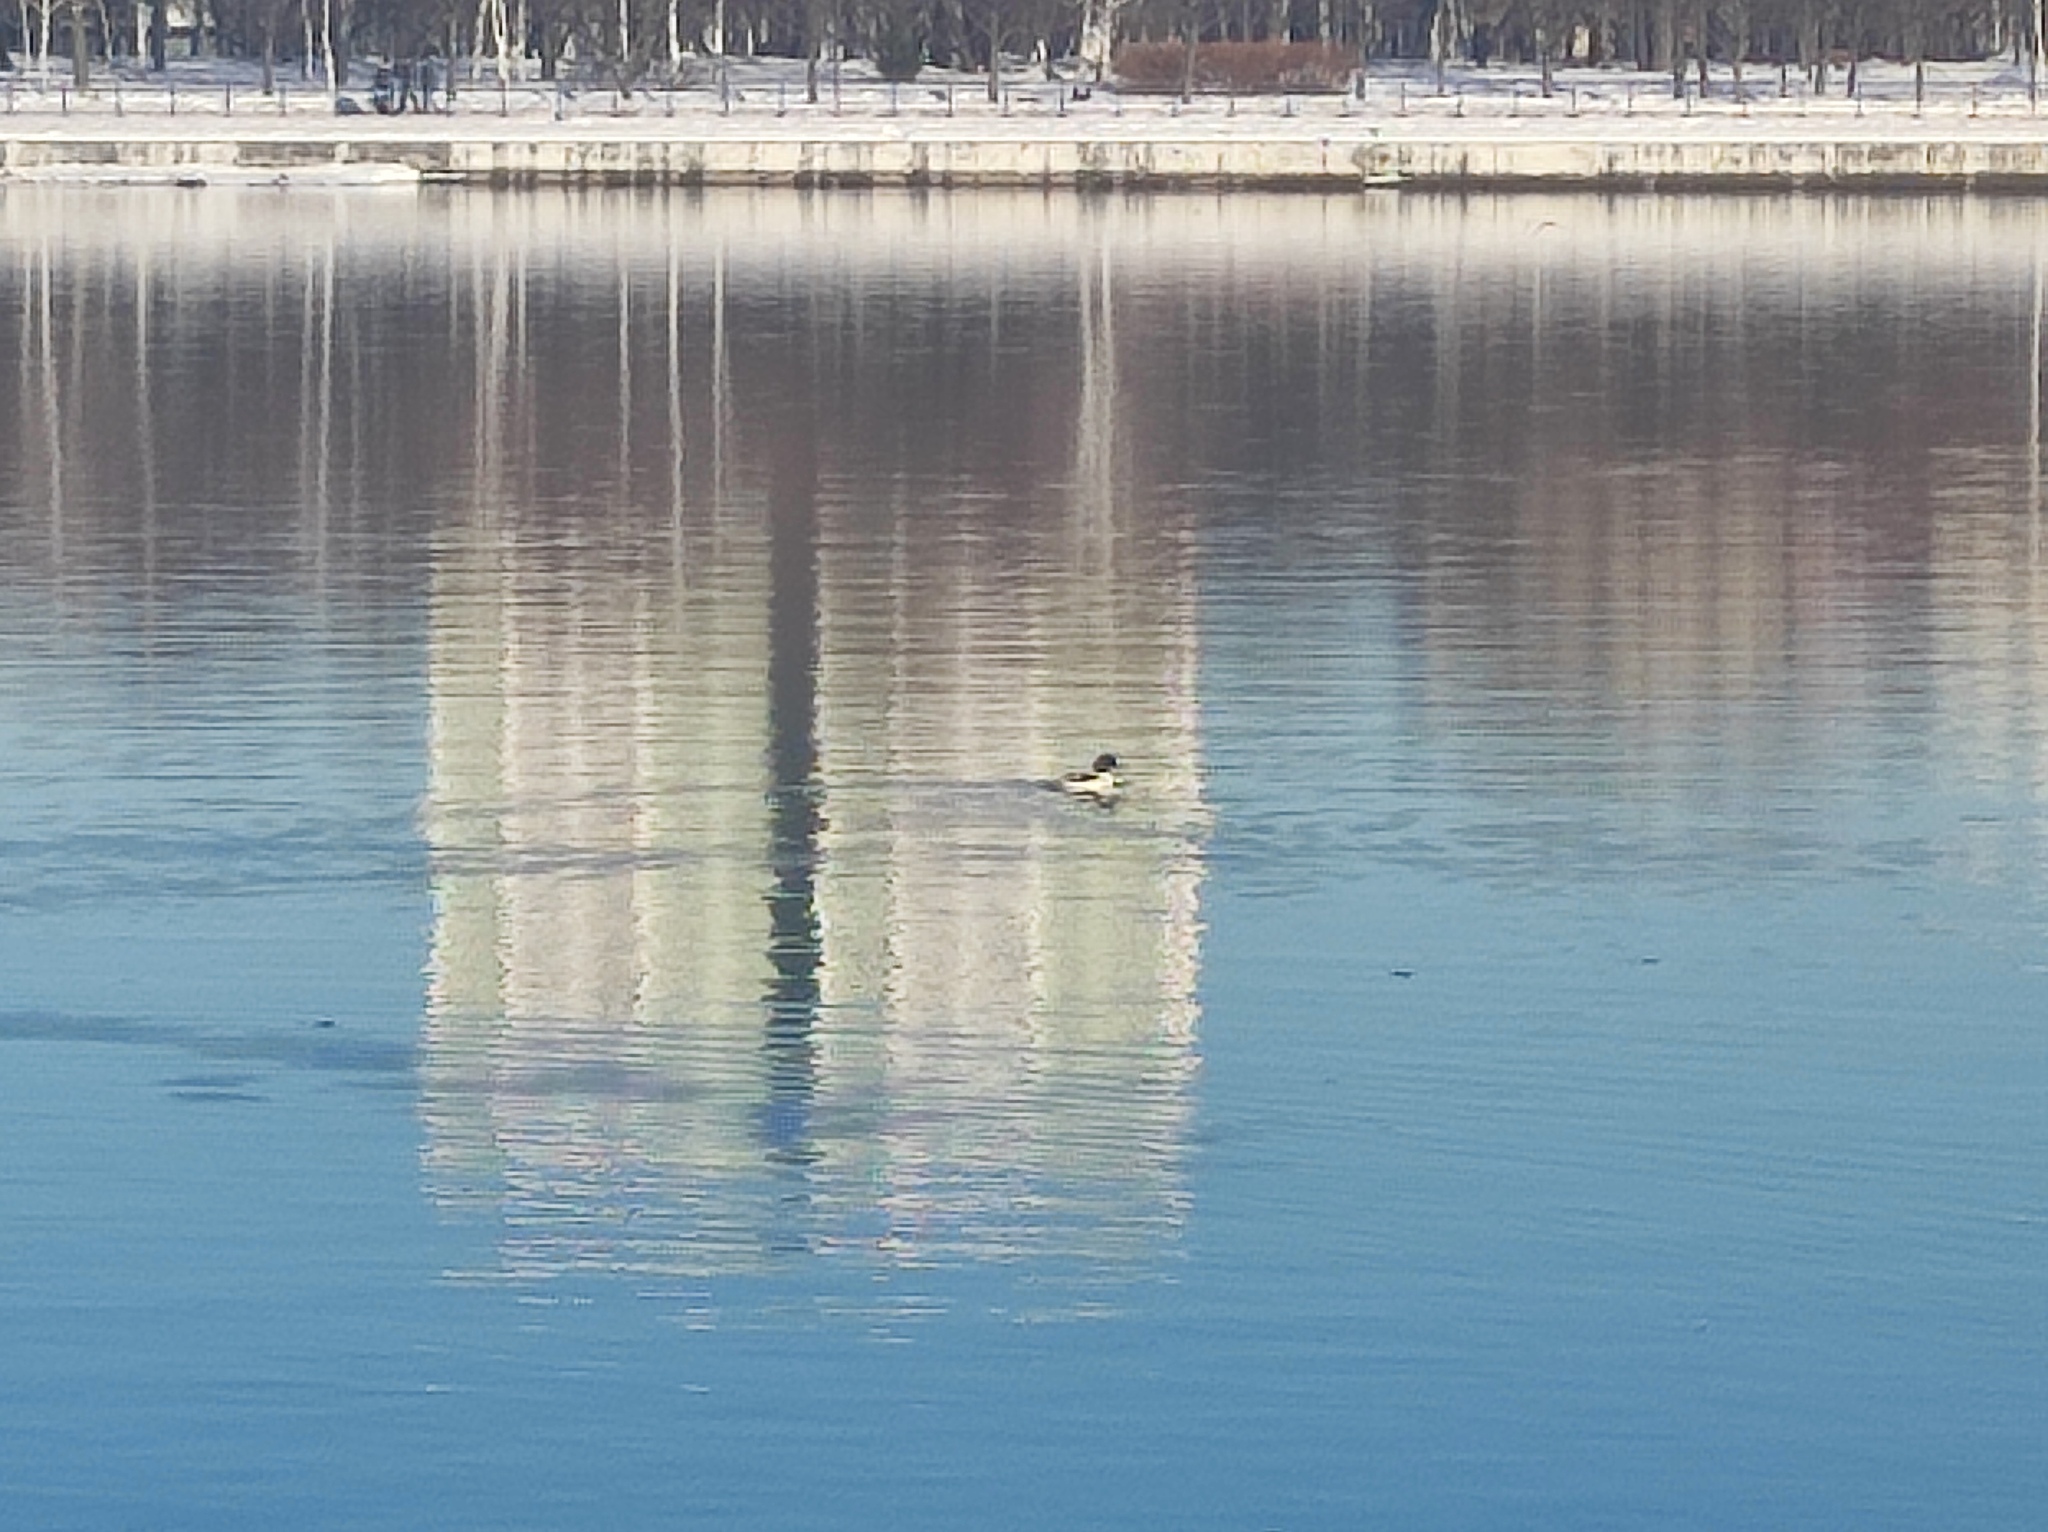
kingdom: Animalia
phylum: Chordata
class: Aves
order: Anseriformes
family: Anatidae
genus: Mergus
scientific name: Mergus merganser
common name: Common merganser
